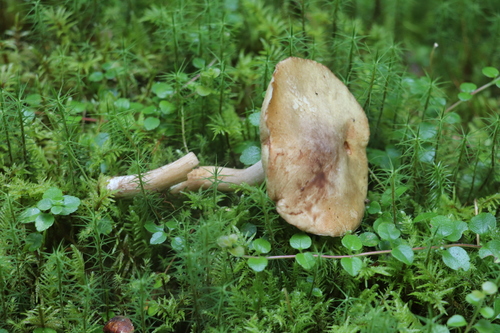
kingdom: Fungi
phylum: Basidiomycota
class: Agaricomycetes
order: Boletales
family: Suillaceae
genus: Suillus
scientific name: Suillus
